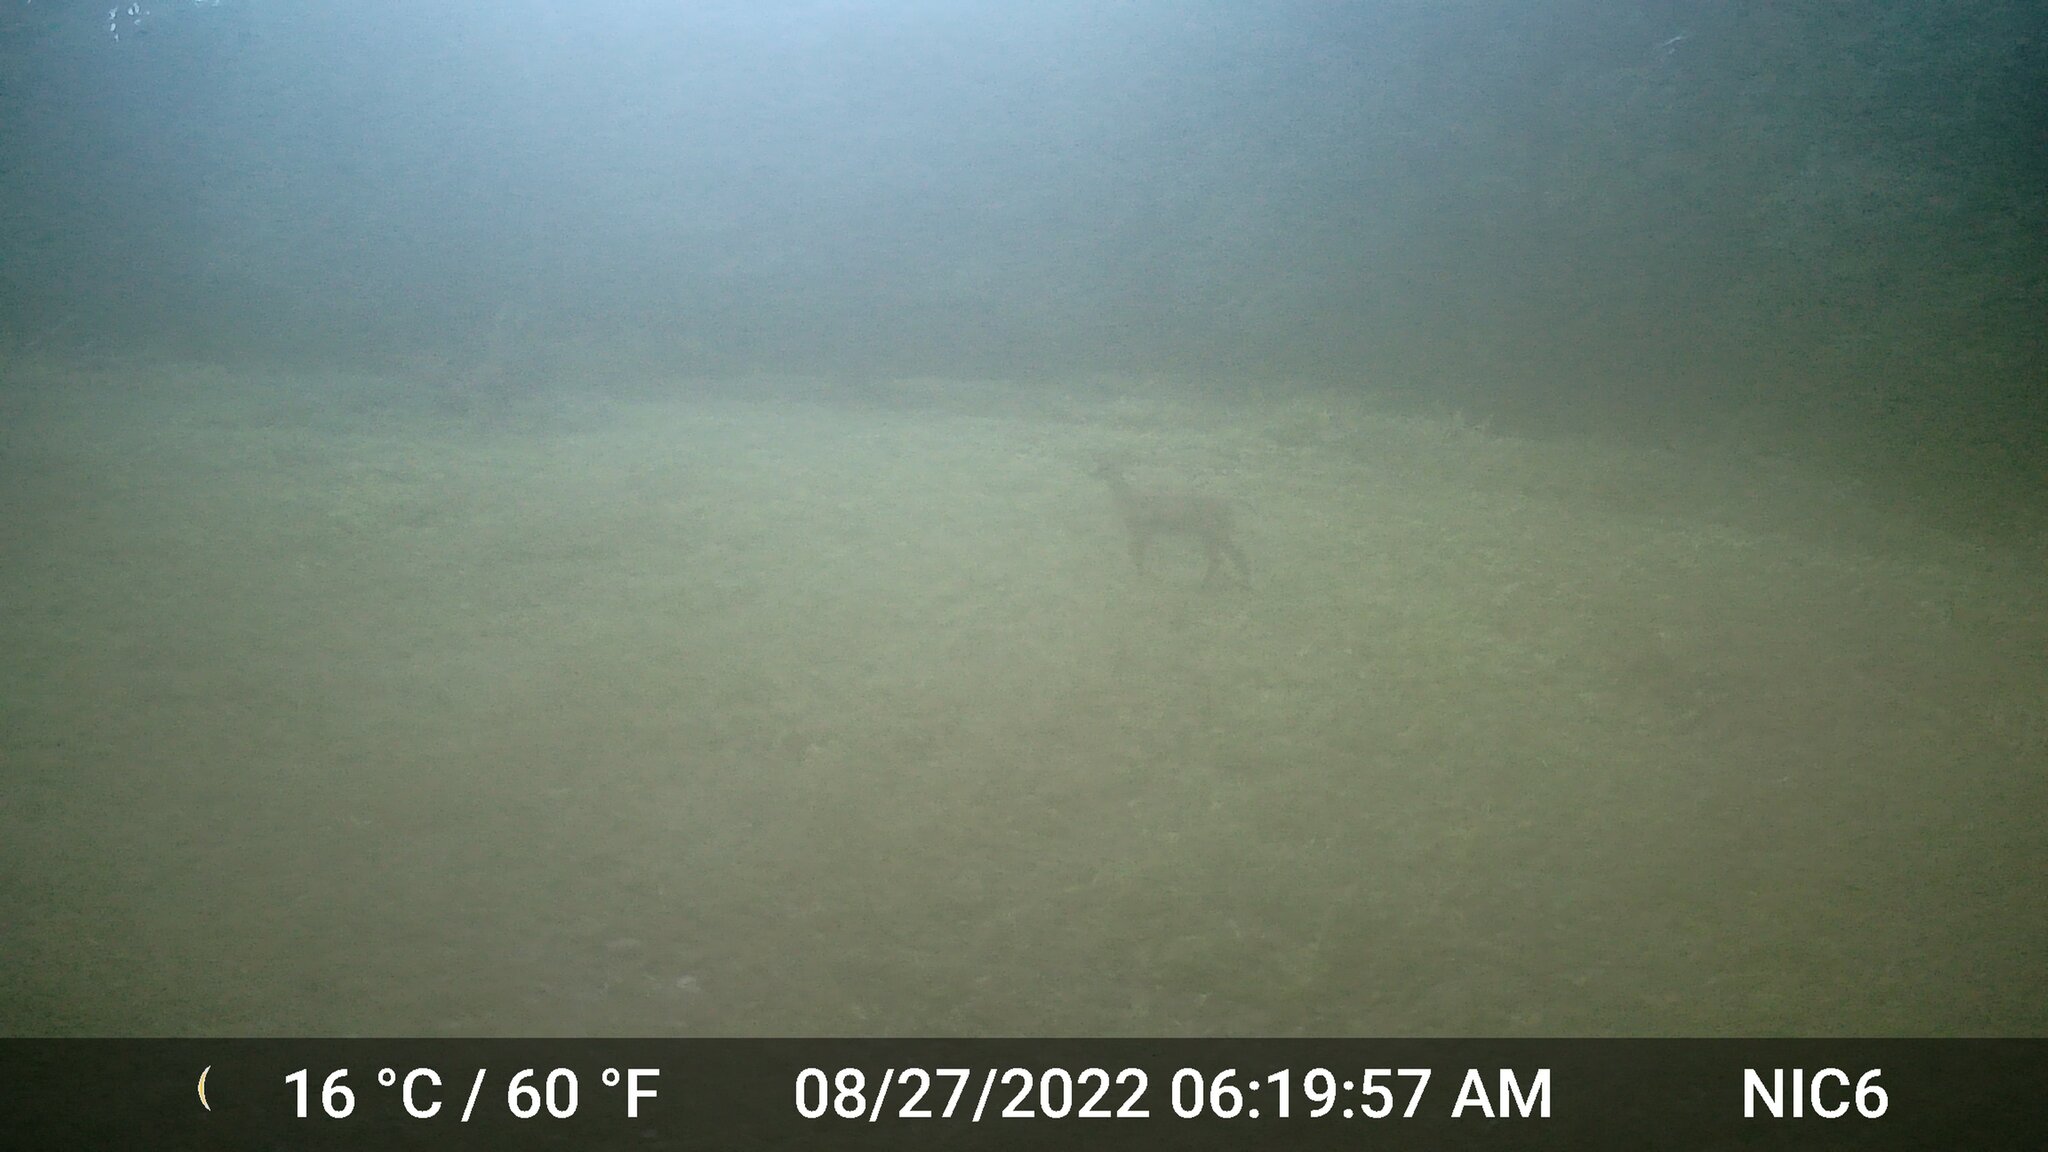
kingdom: Animalia
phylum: Chordata
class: Mammalia
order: Artiodactyla
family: Cervidae
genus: Odocoileus
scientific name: Odocoileus virginianus
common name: White-tailed deer
